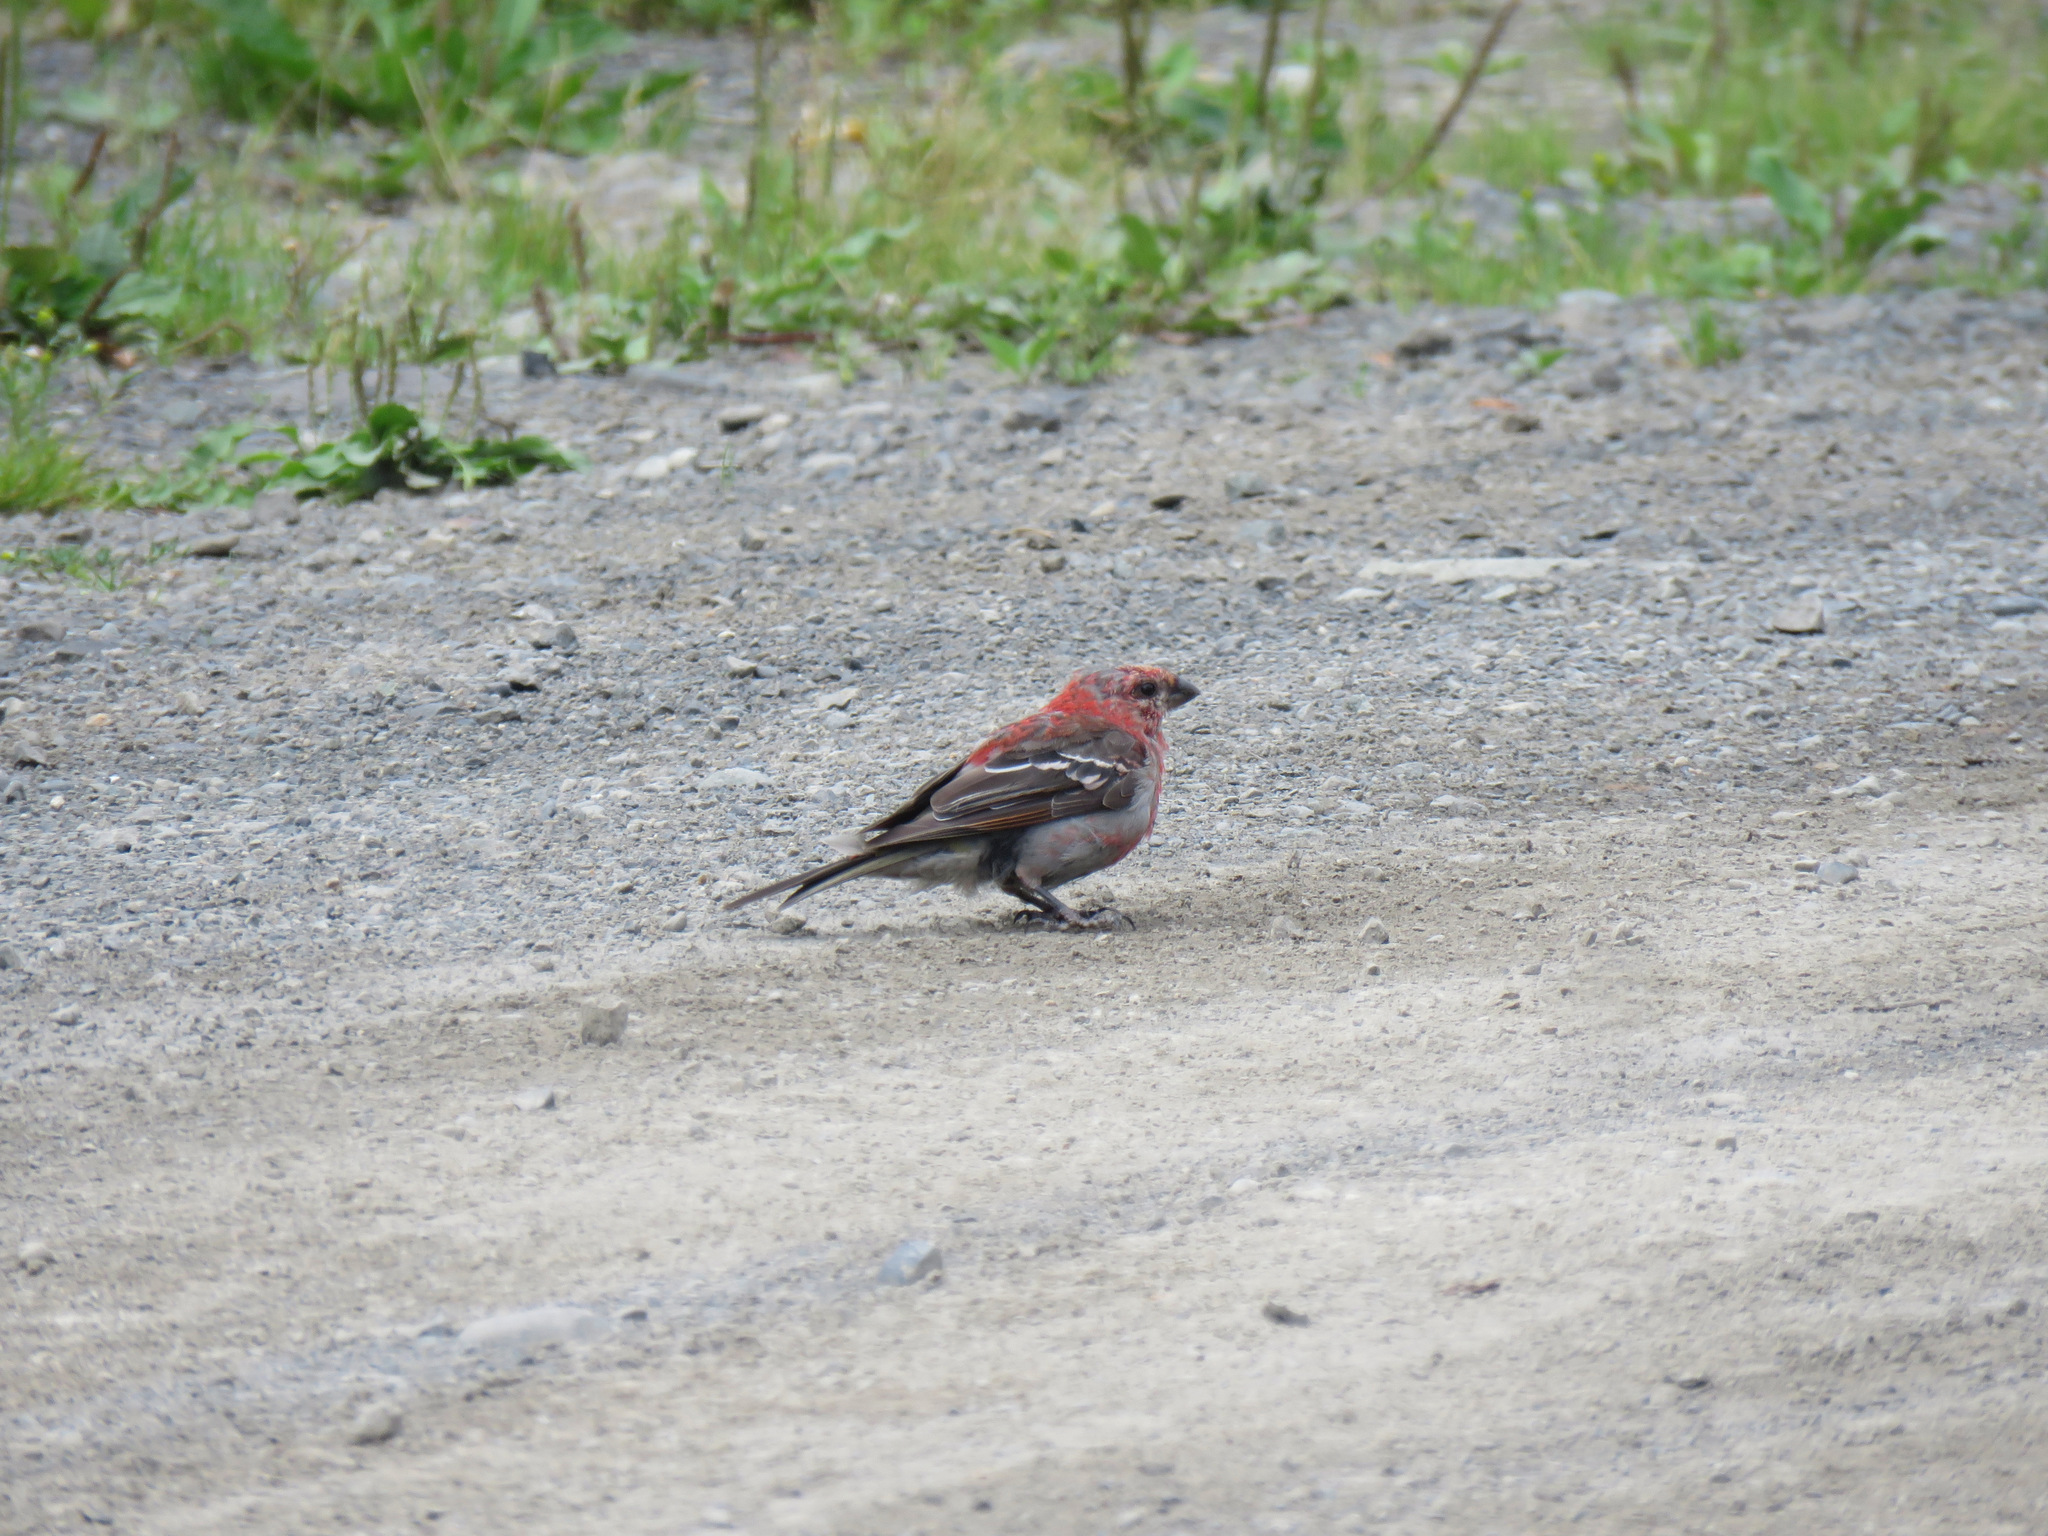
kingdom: Animalia
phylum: Chordata
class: Aves
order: Passeriformes
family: Fringillidae
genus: Pinicola
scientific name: Pinicola enucleator
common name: Pine grosbeak
